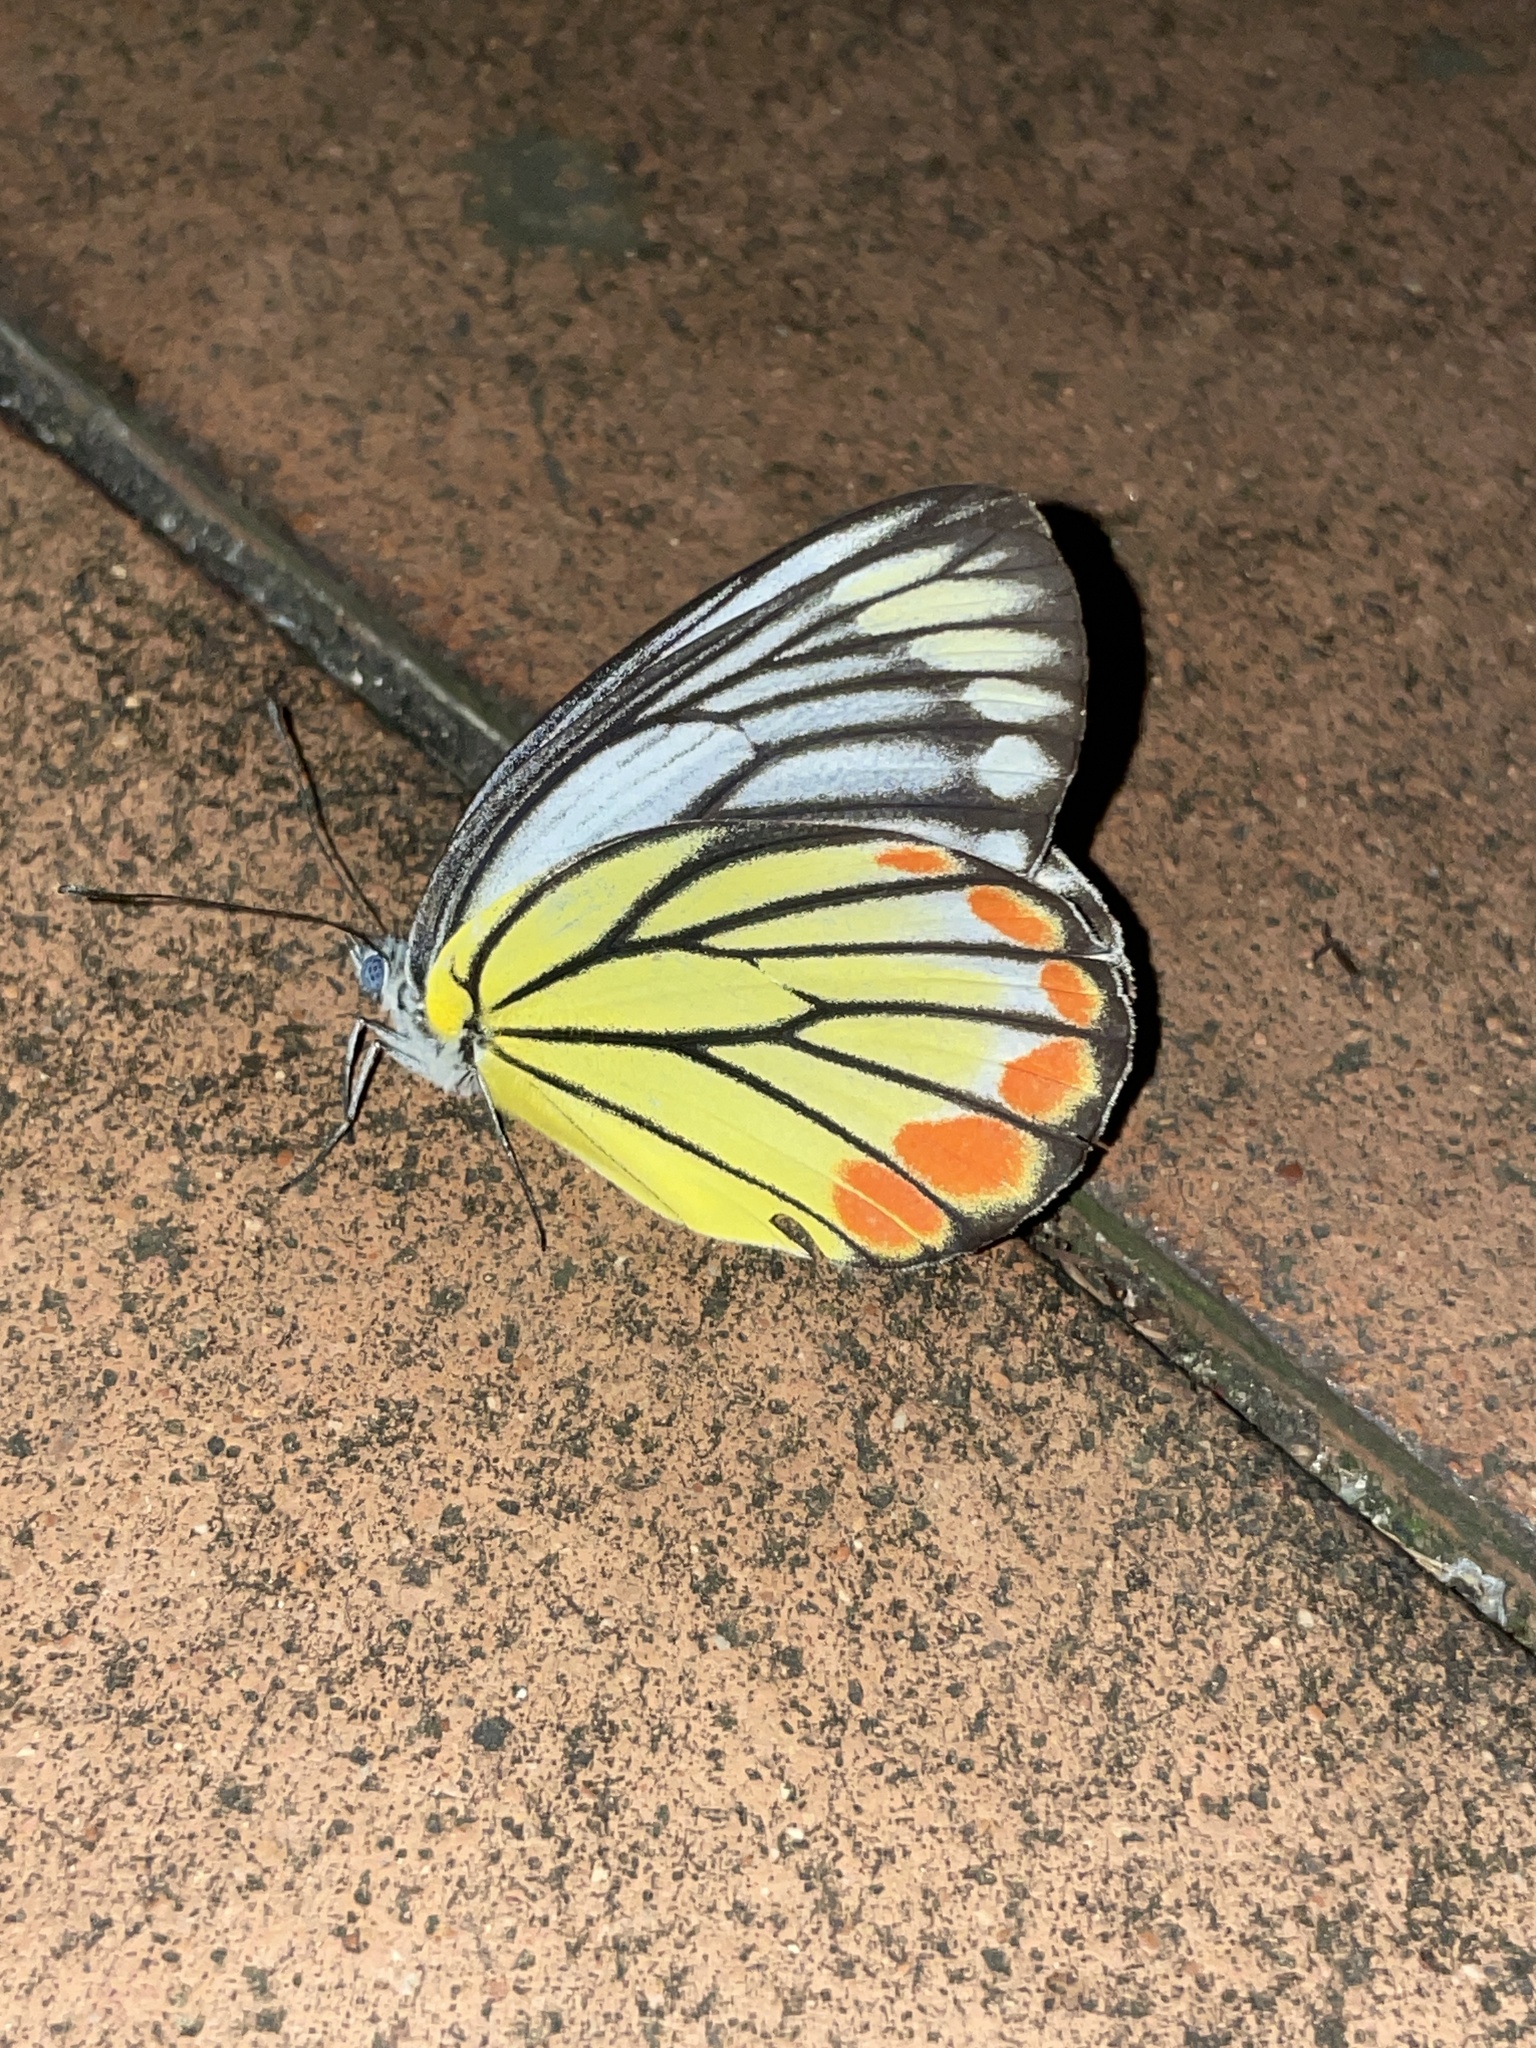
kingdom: Animalia
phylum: Arthropoda
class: Insecta
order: Lepidoptera
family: Pieridae
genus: Delias
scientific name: Delias hyparete
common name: Painted jezebel
